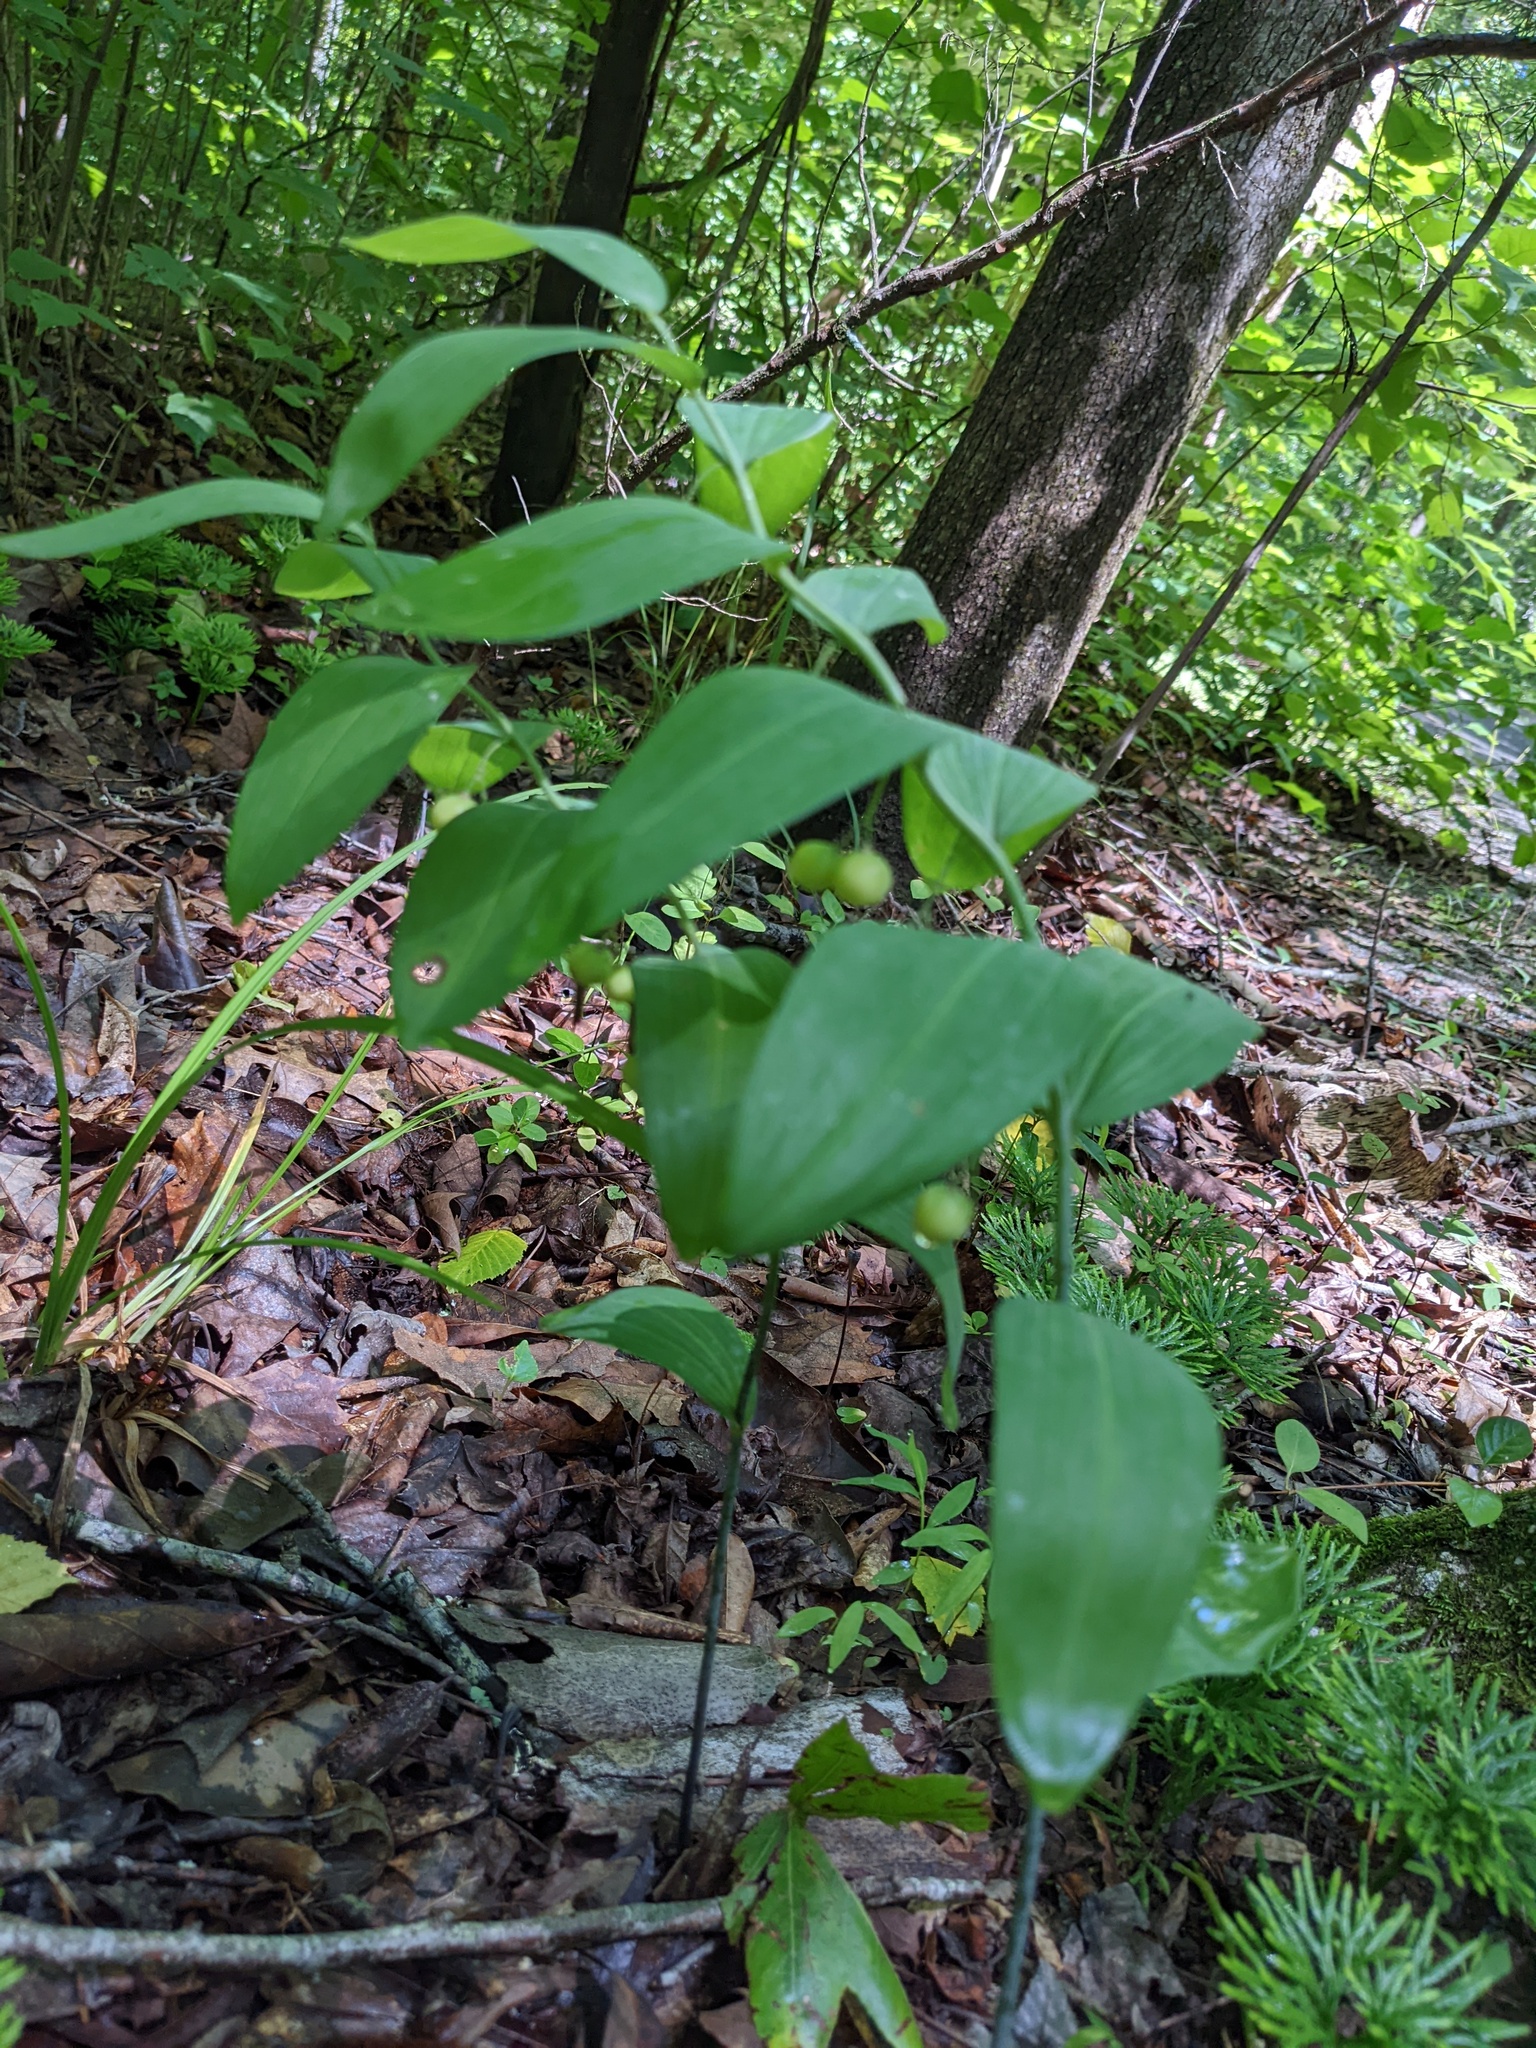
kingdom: Plantae
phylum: Tracheophyta
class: Liliopsida
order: Asparagales
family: Asparagaceae
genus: Polygonatum
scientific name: Polygonatum biflorum
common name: American solomon's-seal
